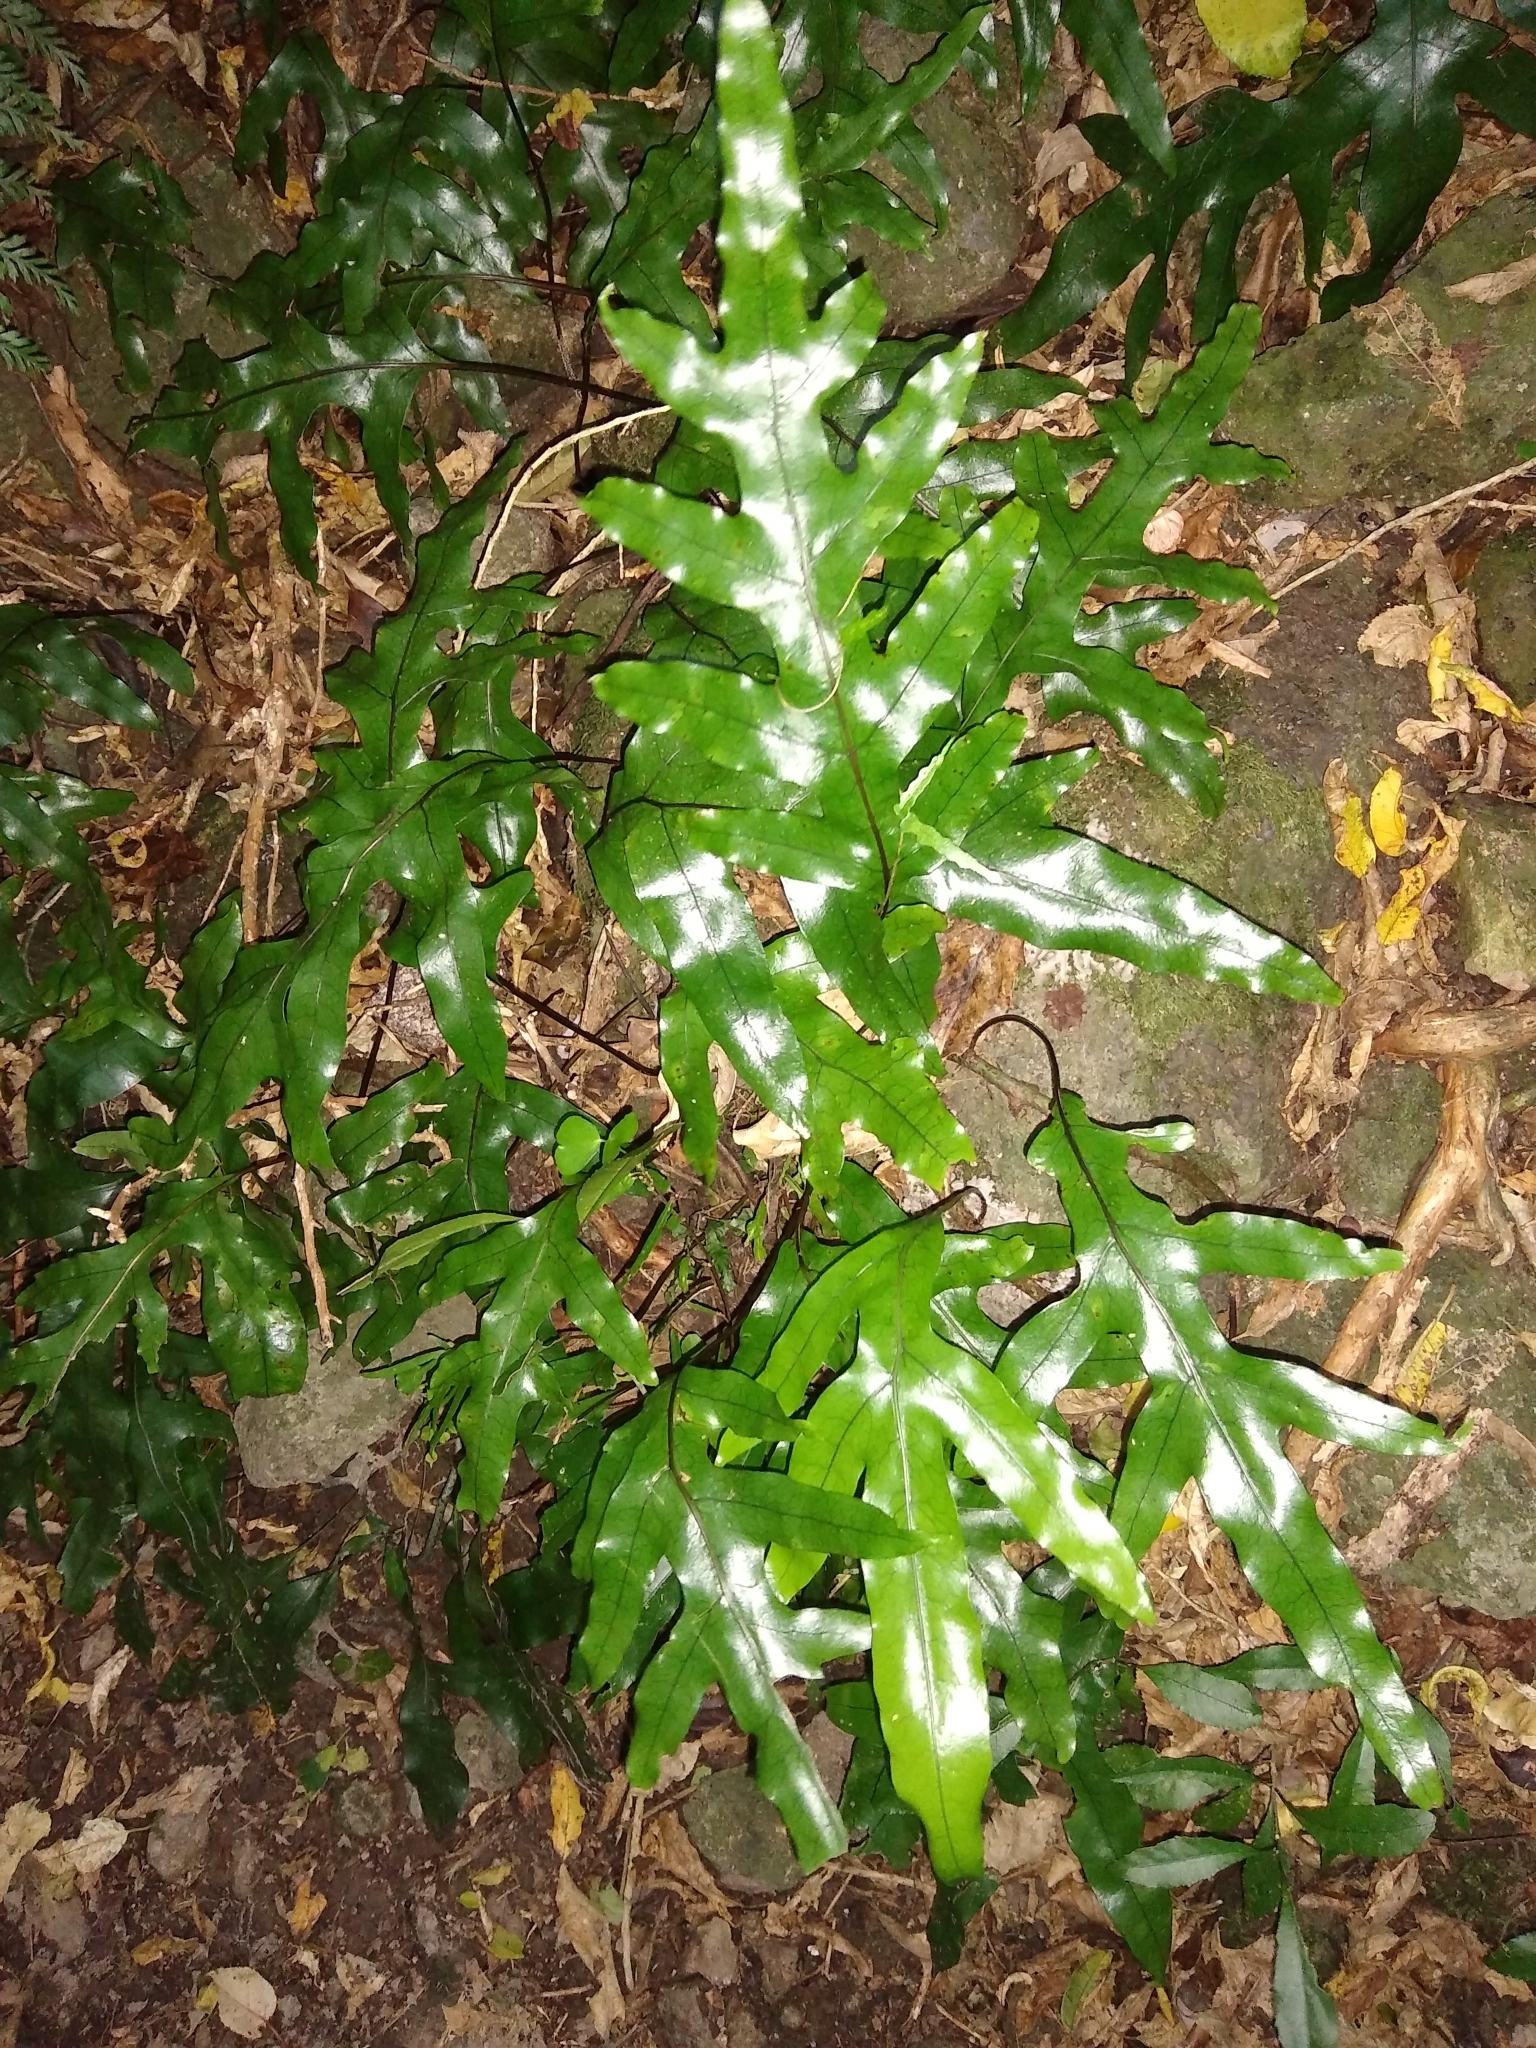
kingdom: Plantae
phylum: Tracheophyta
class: Polypodiopsida
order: Polypodiales
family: Polypodiaceae
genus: Lecanopteris
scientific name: Lecanopteris pustulata
